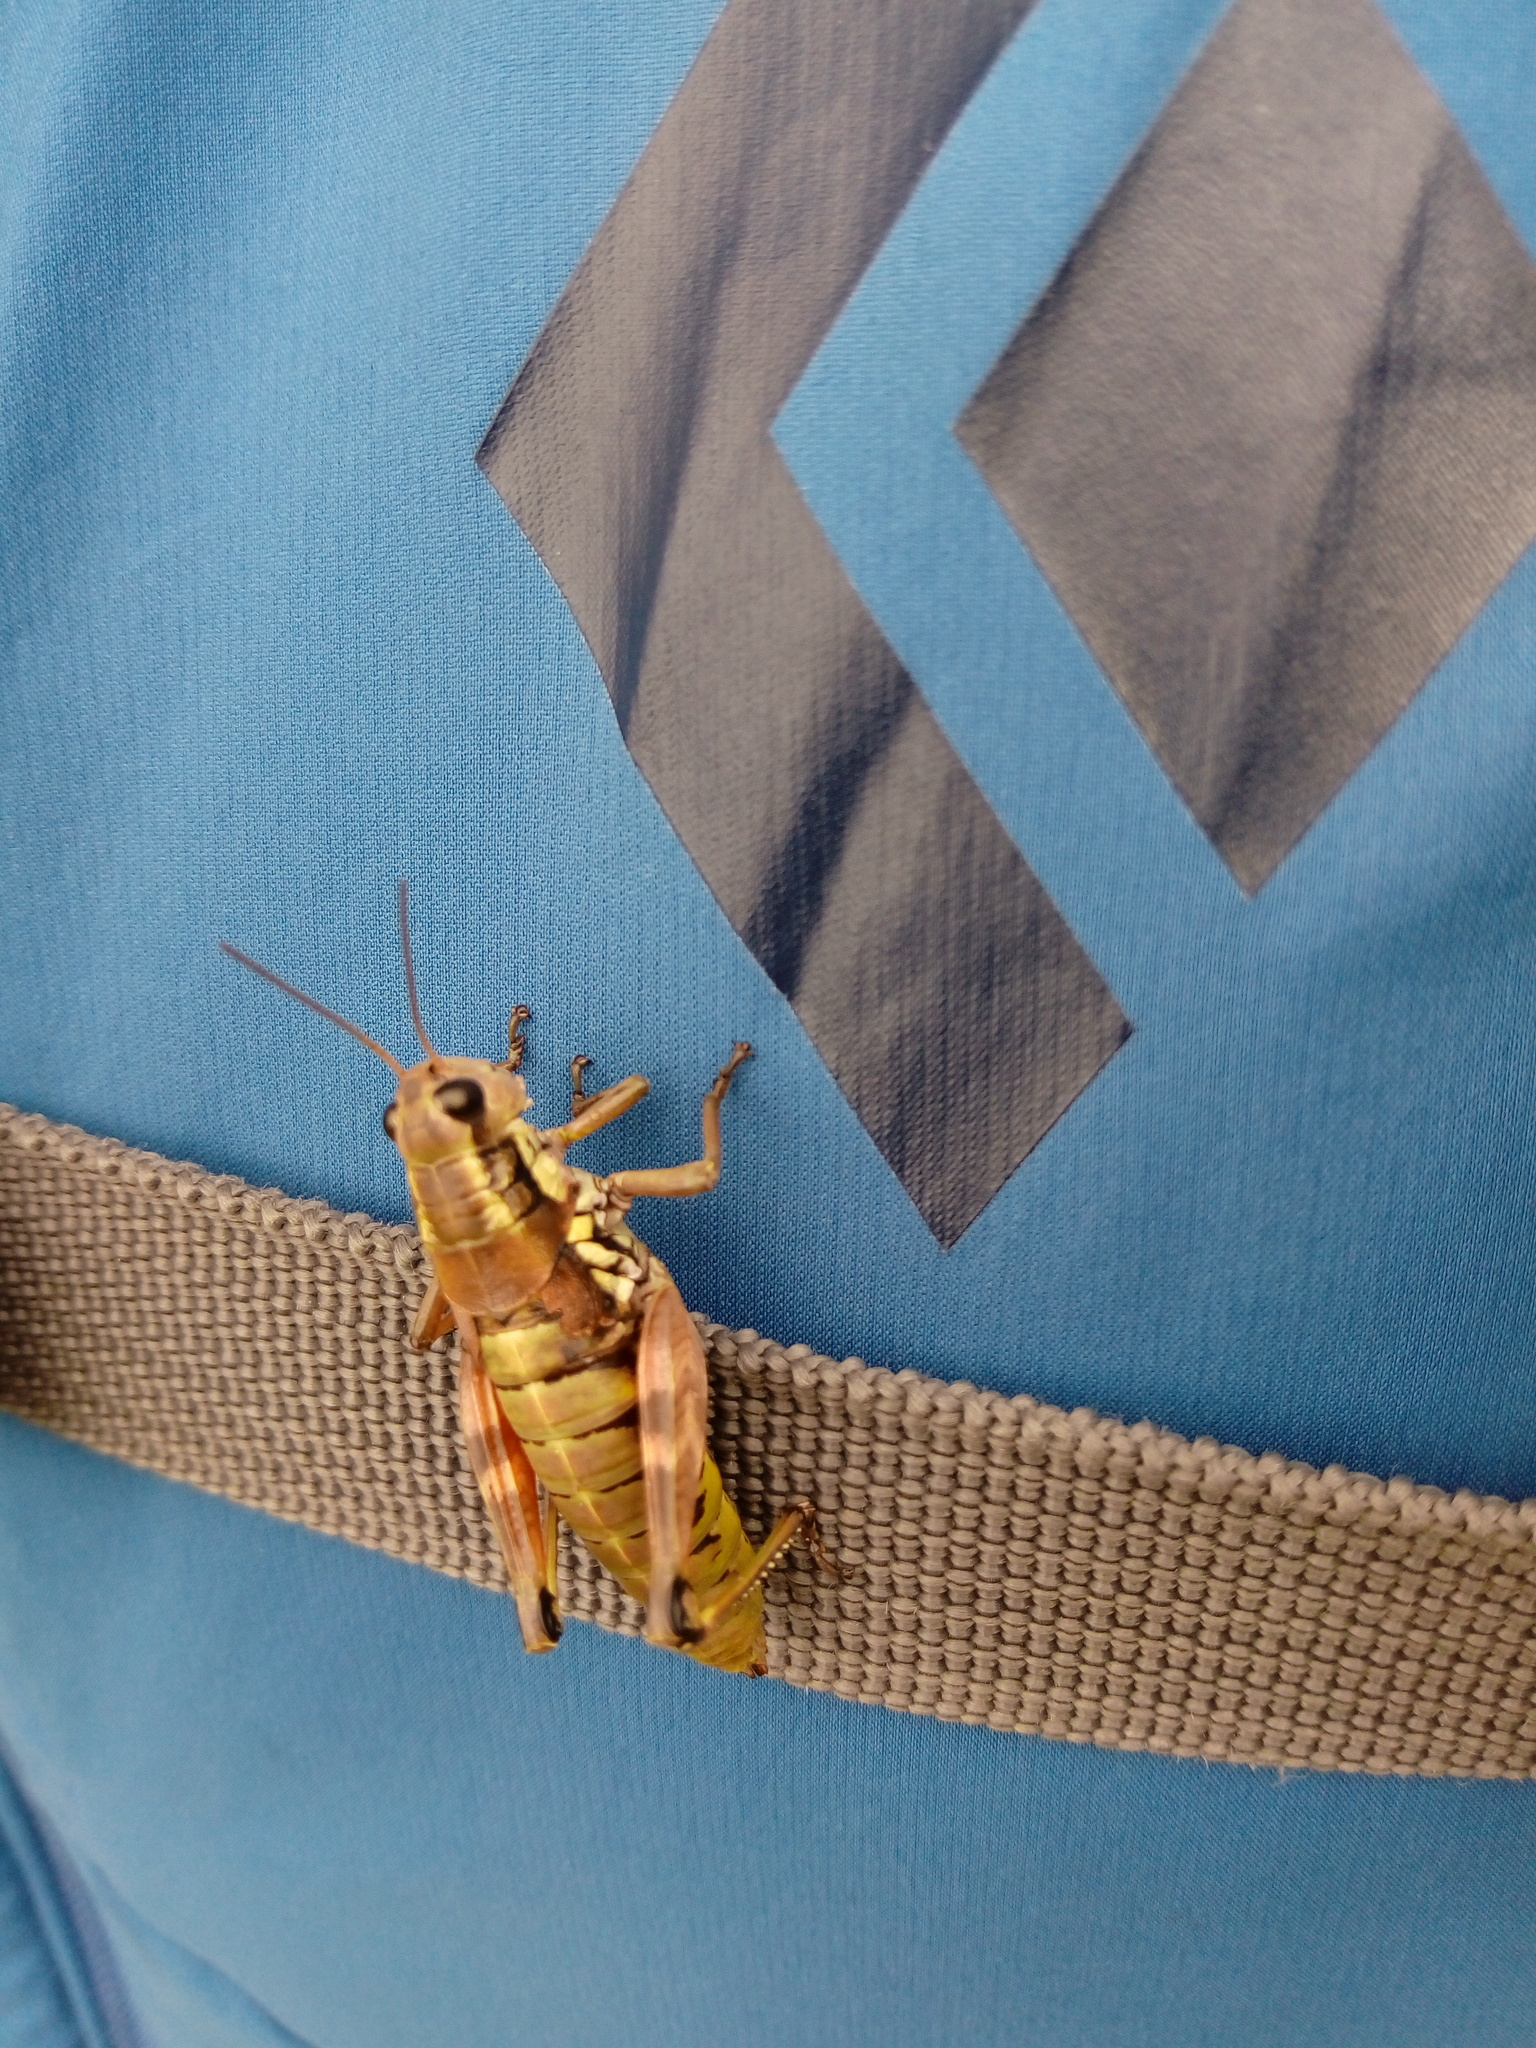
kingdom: Animalia
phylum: Arthropoda
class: Insecta
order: Orthoptera
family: Acrididae
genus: Podisma
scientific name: Podisma pedestris
